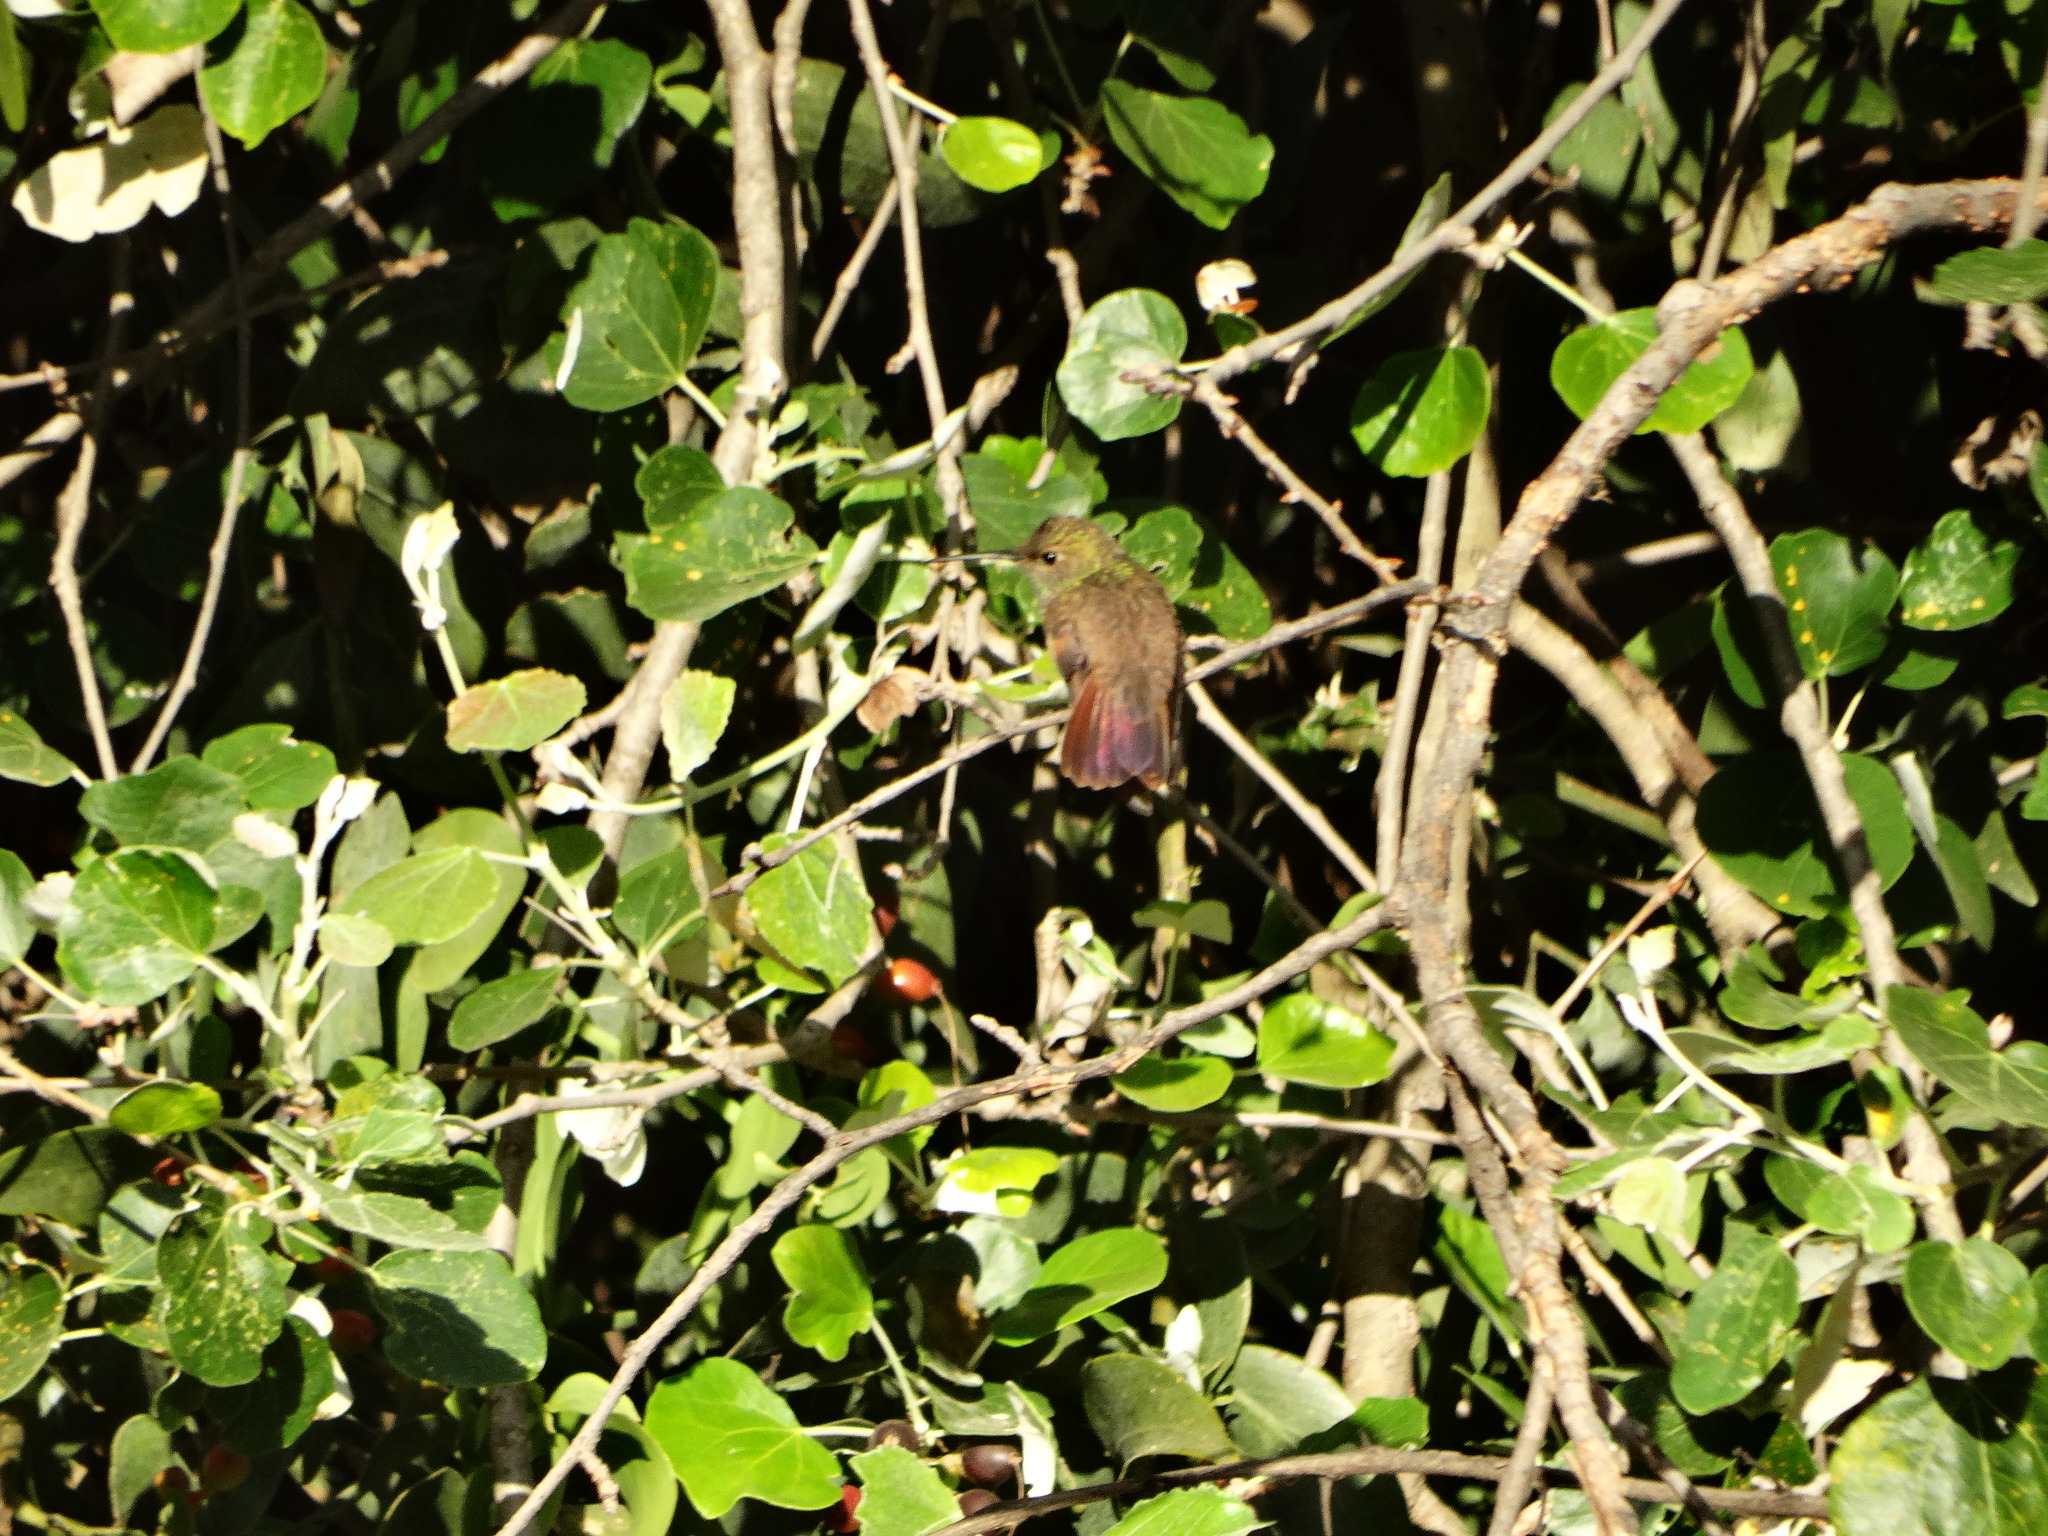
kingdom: Animalia
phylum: Chordata
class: Aves
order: Apodiformes
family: Trochilidae
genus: Saucerottia
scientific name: Saucerottia beryllina
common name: Berylline hummingbird
